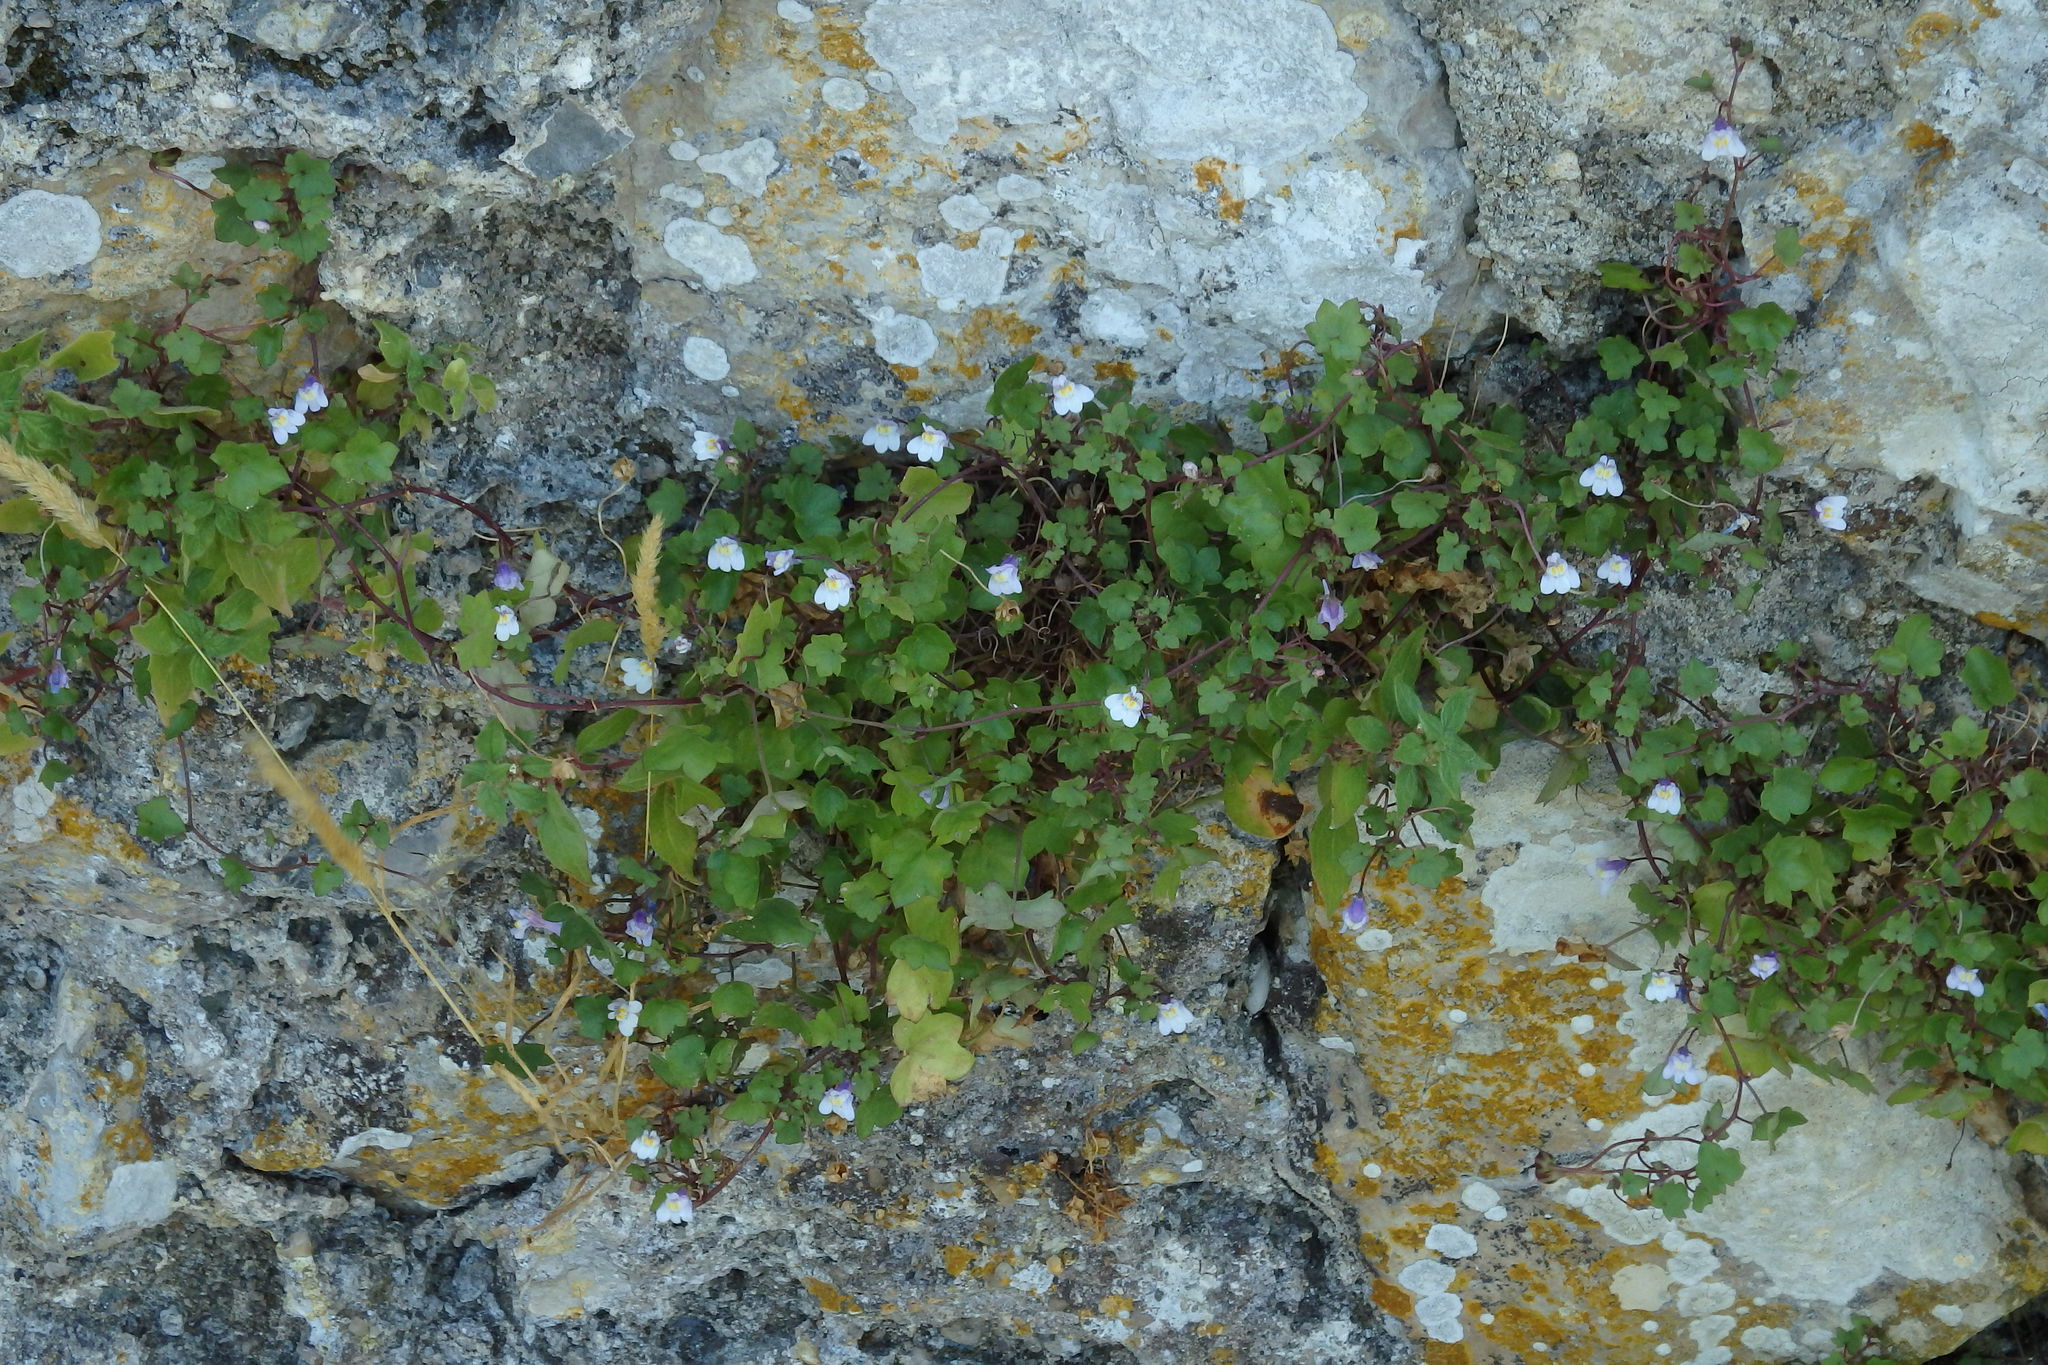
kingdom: Plantae
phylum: Tracheophyta
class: Magnoliopsida
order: Lamiales
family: Plantaginaceae
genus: Cymbalaria
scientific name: Cymbalaria muralis
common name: Ivy-leaved toadflax
